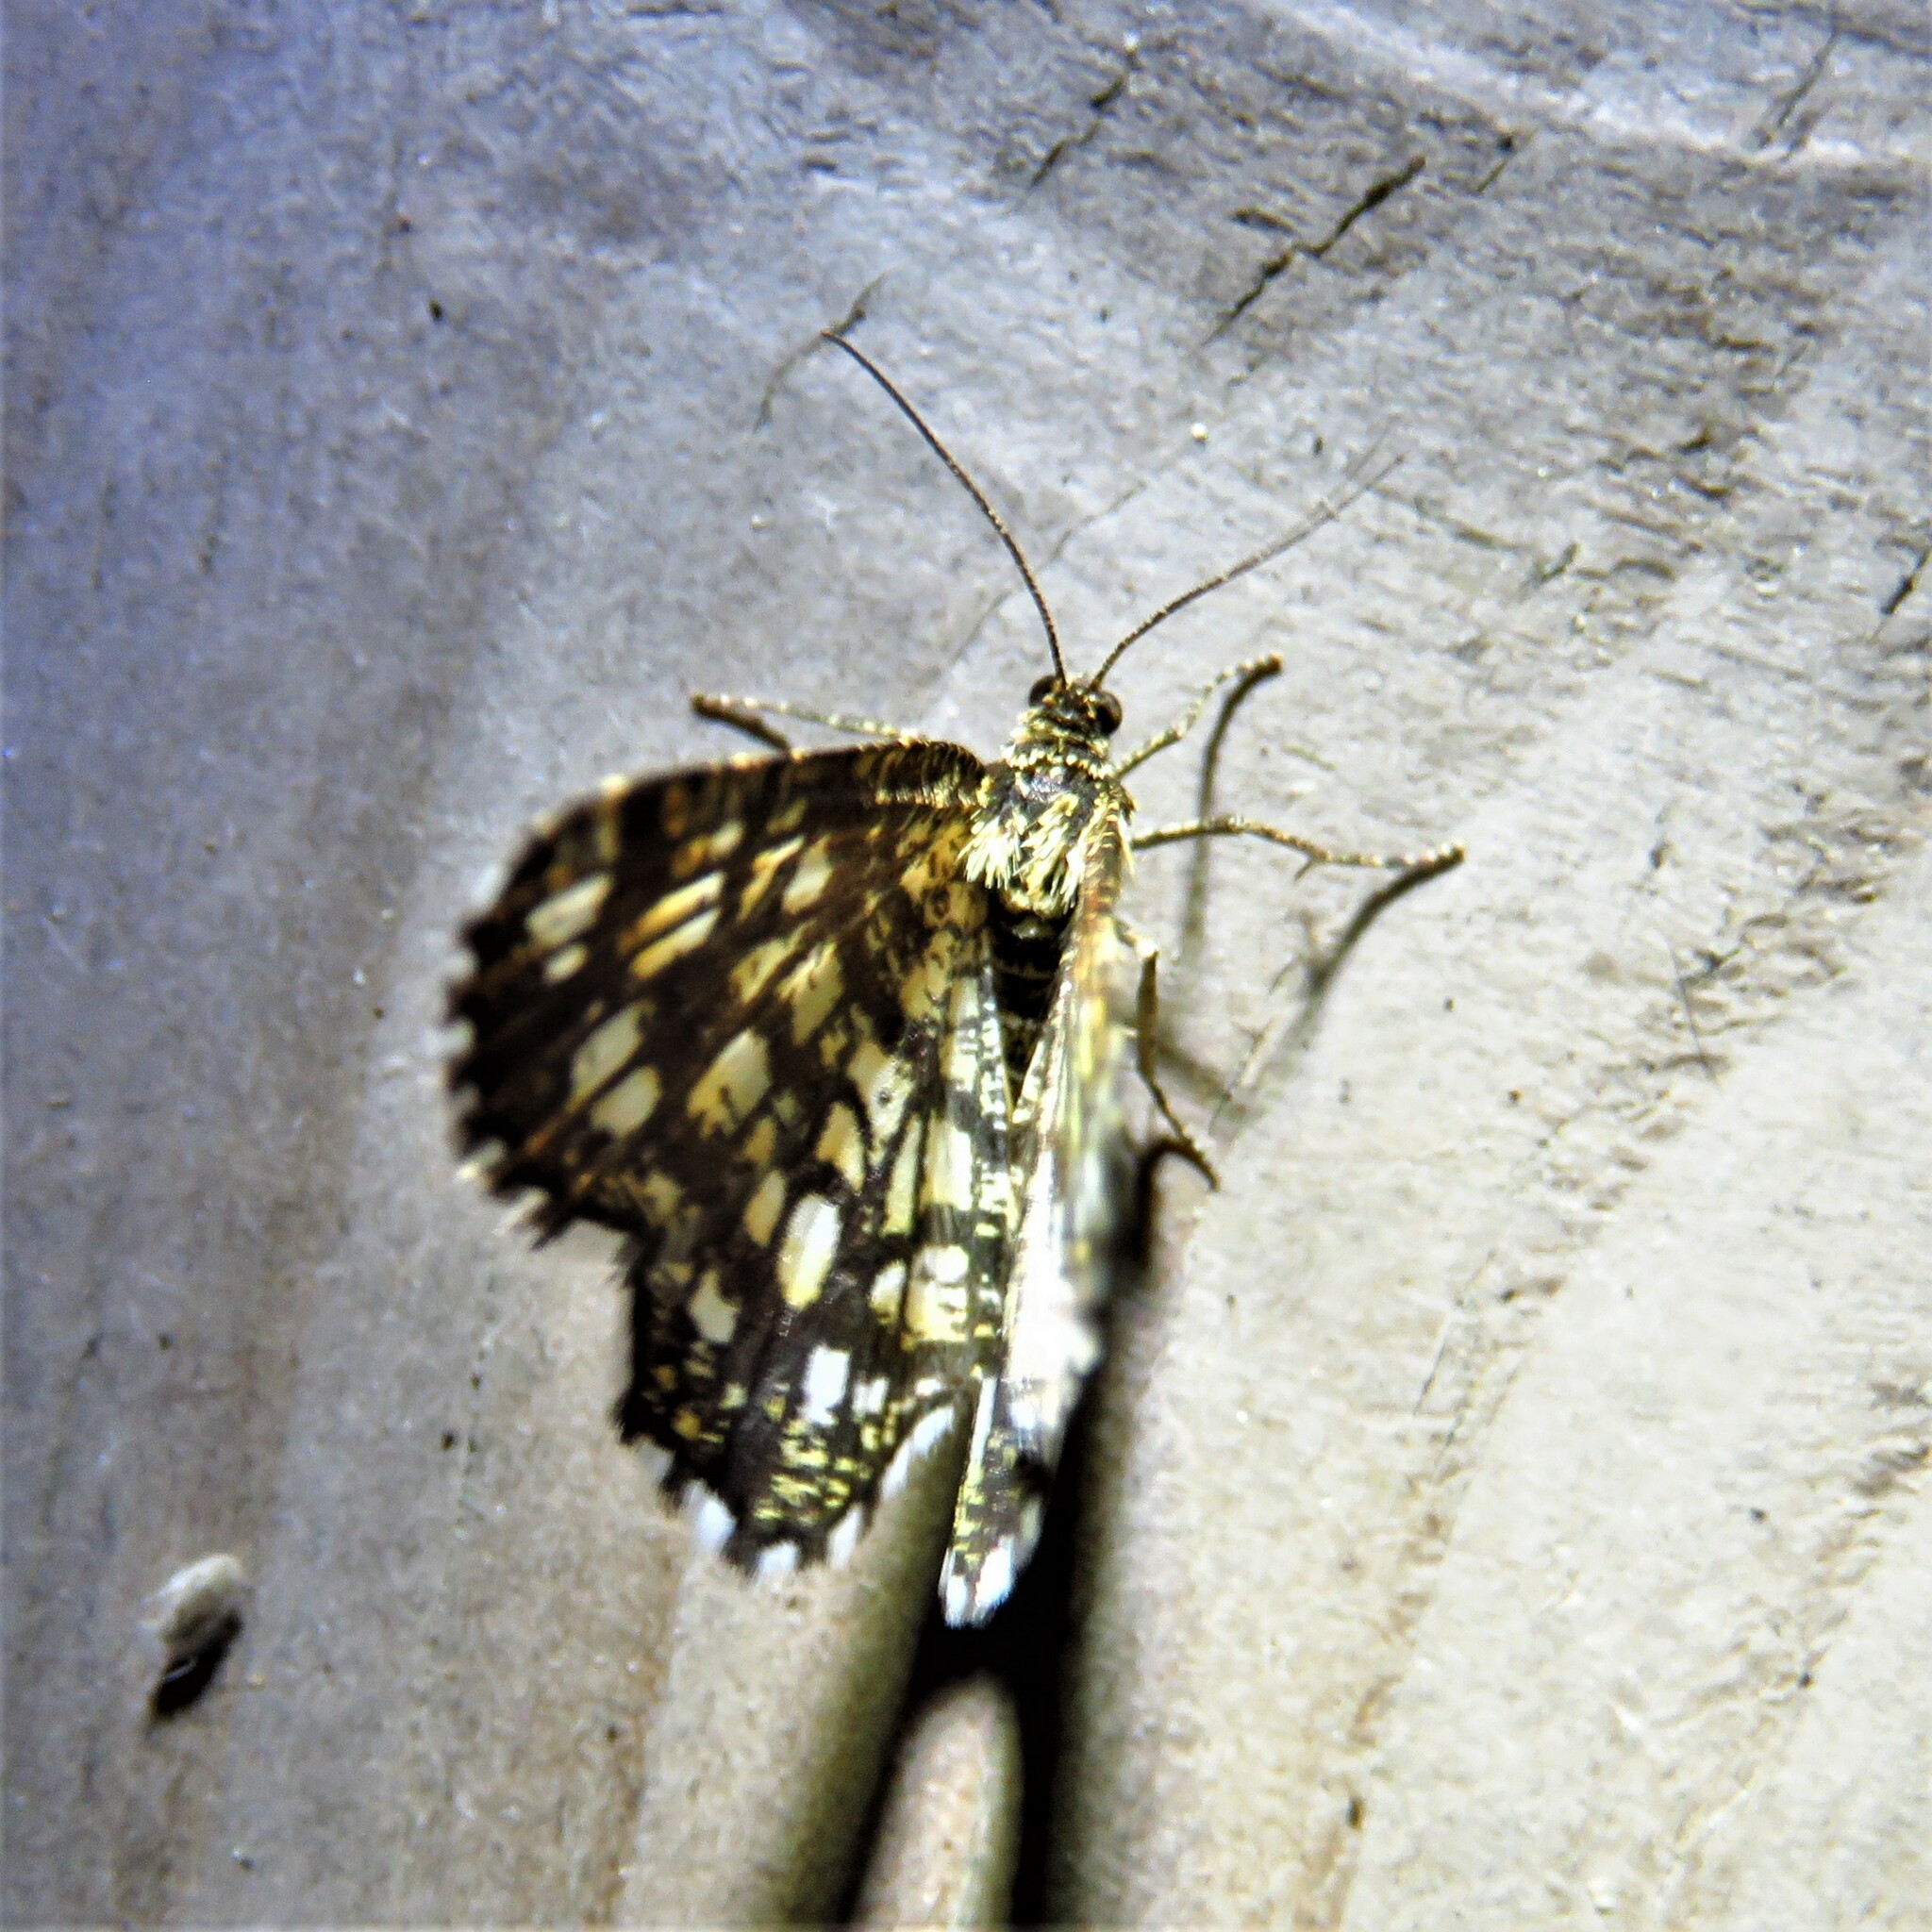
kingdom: Animalia
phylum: Arthropoda
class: Insecta
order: Lepidoptera
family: Geometridae
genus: Chiasmia
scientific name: Chiasmia clathrata
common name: Latticed heath
